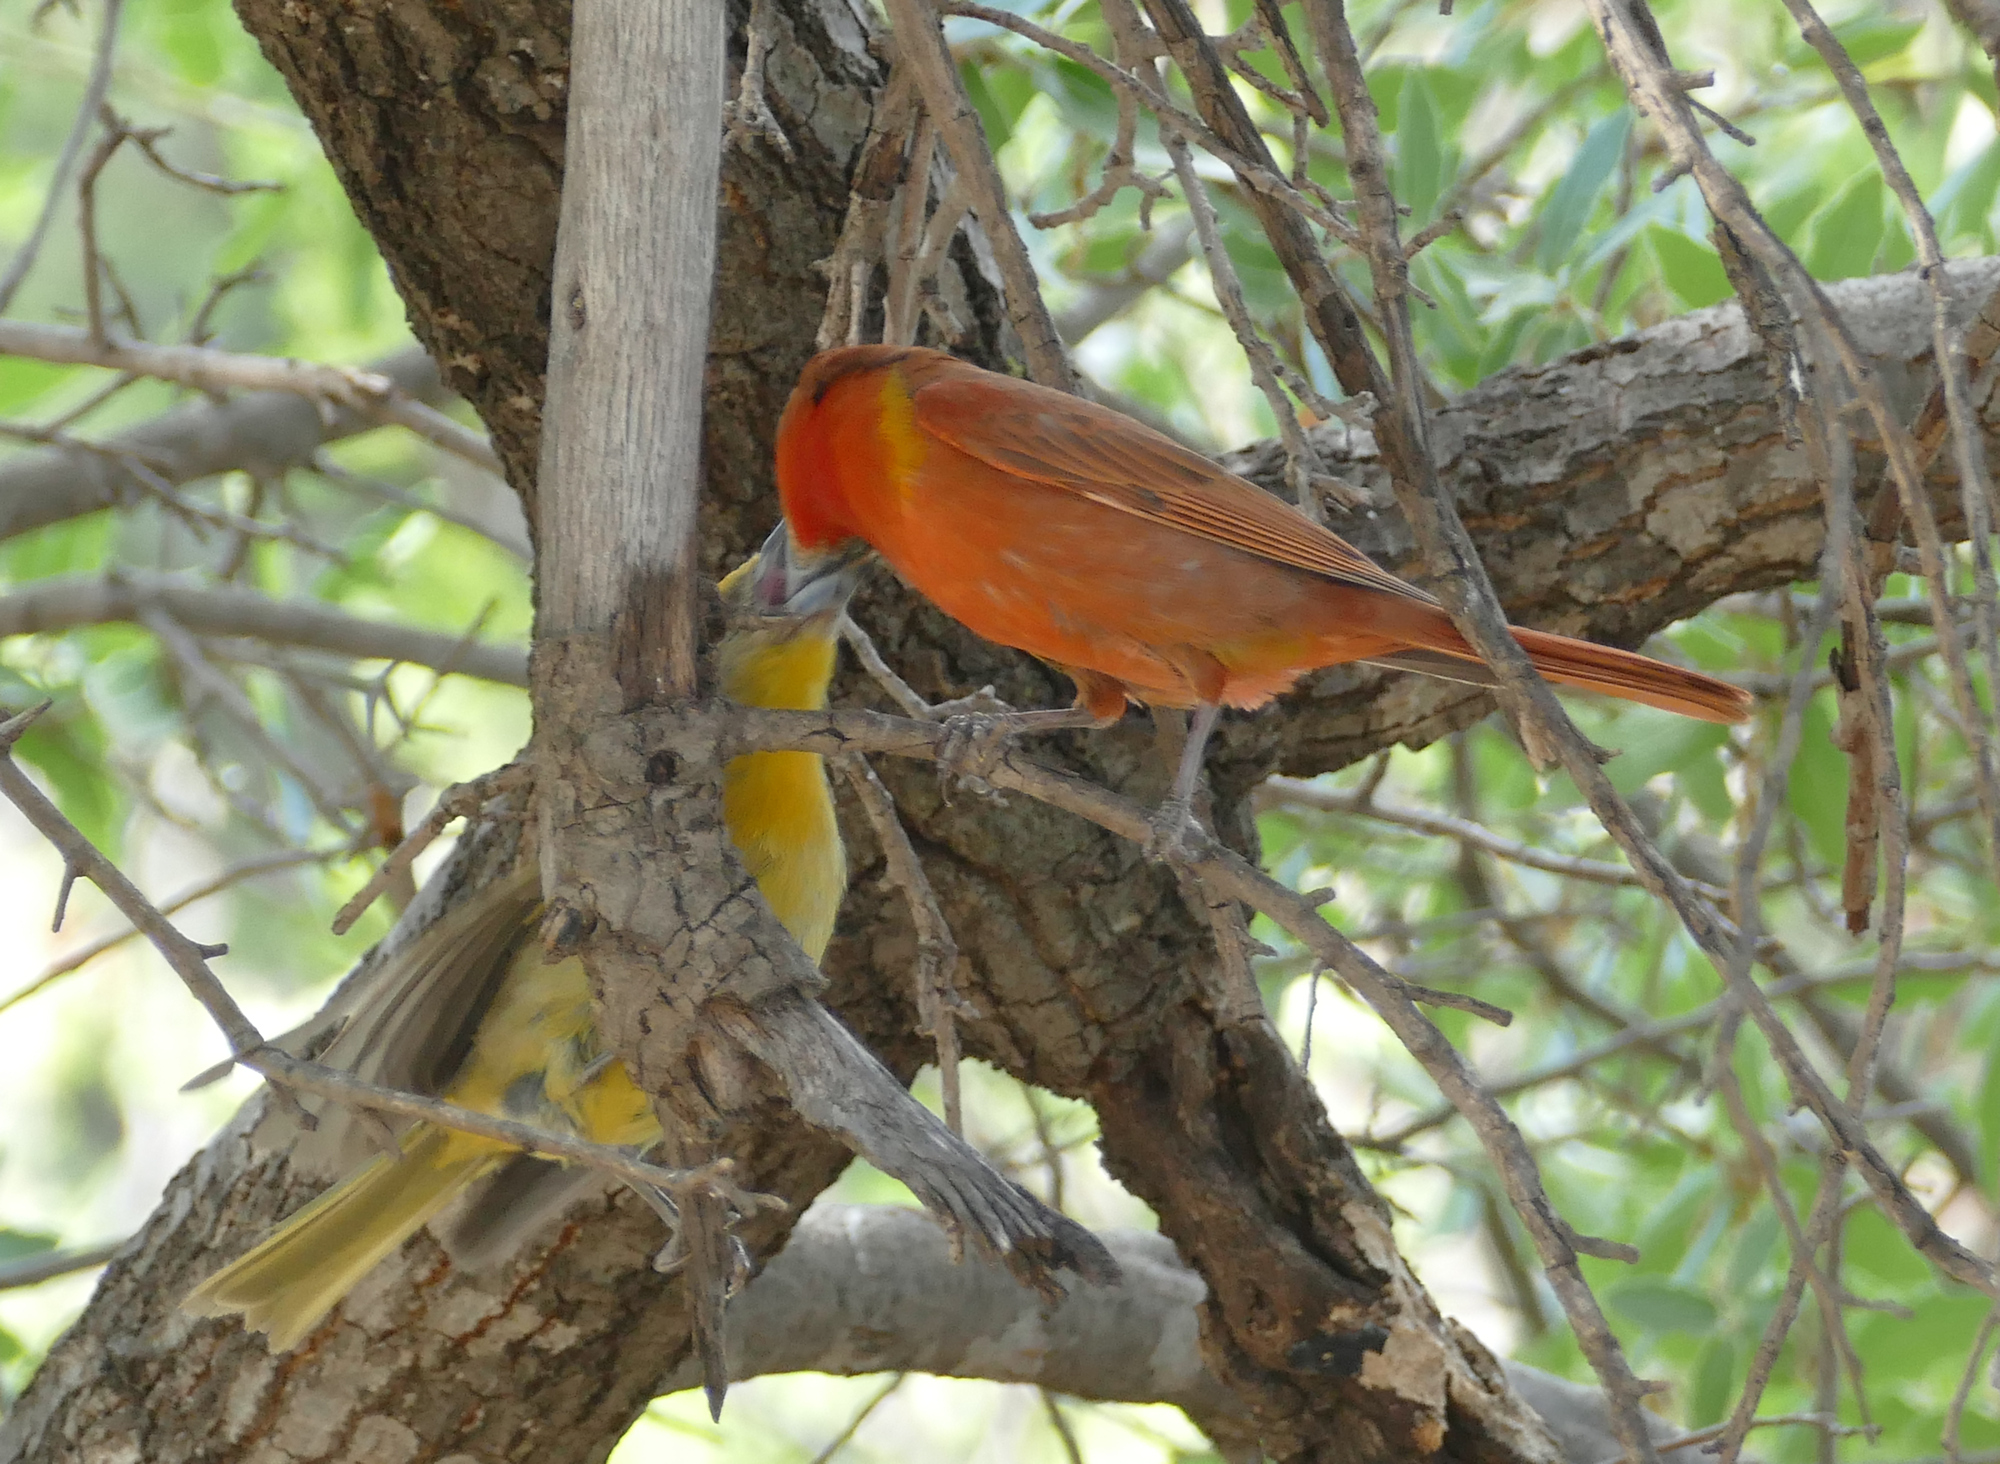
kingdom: Animalia
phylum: Chordata
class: Aves
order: Passeriformes
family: Cardinalidae
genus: Piranga
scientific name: Piranga flava
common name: Red tanager
